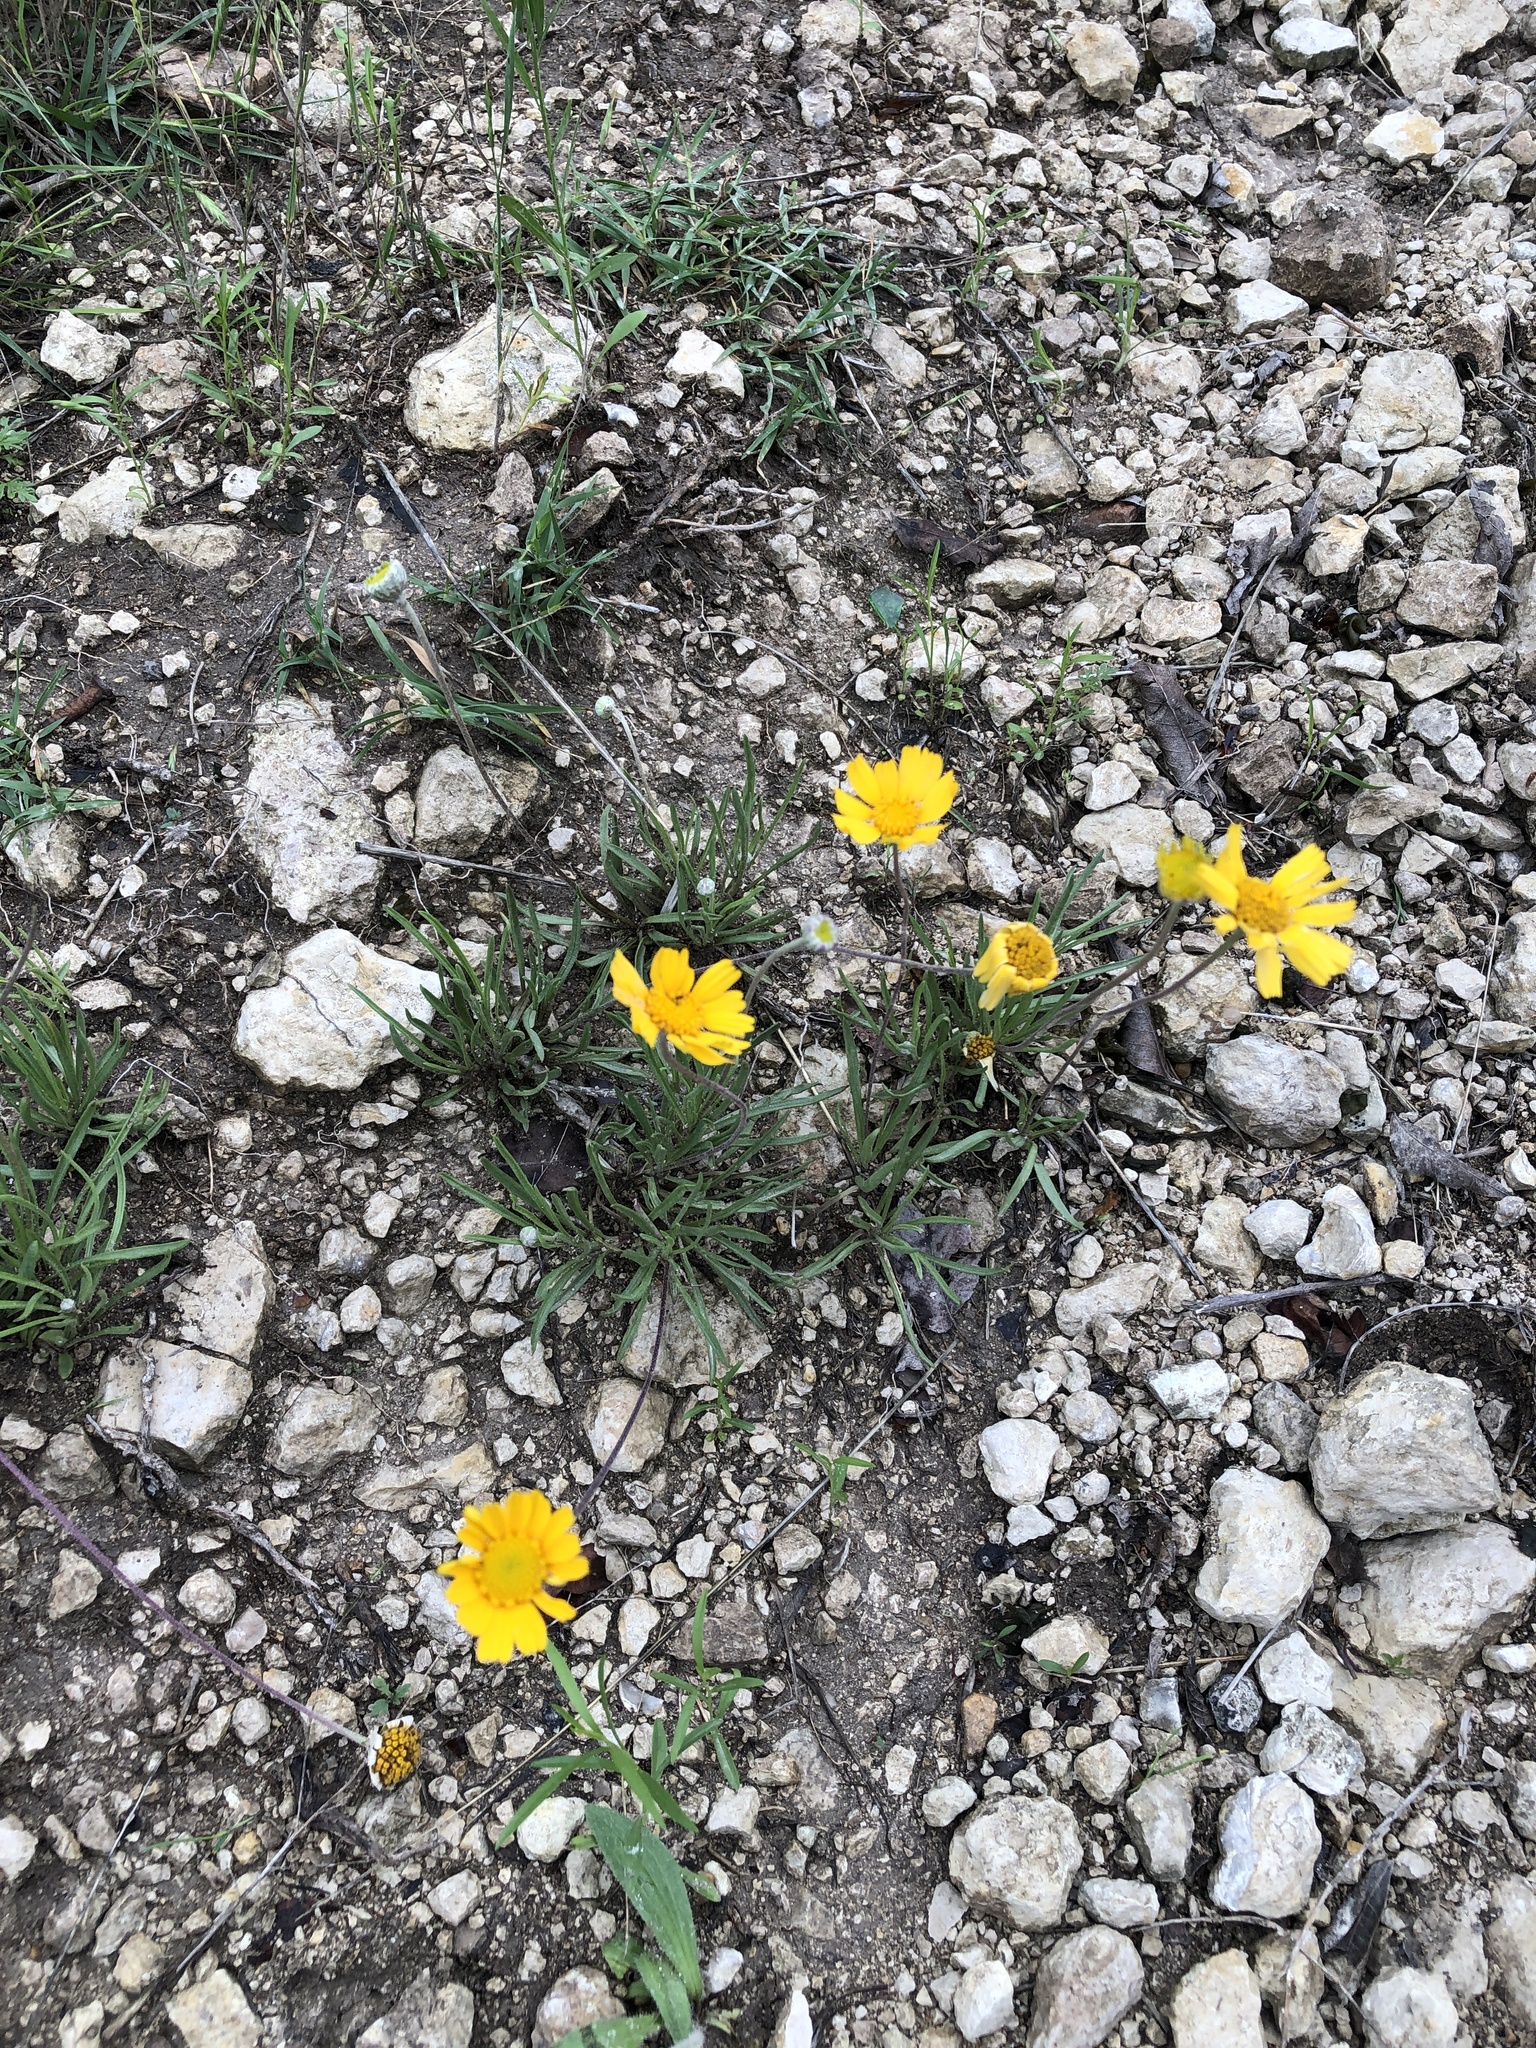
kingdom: Plantae
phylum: Tracheophyta
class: Magnoliopsida
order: Asterales
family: Asteraceae
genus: Tetraneuris
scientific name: Tetraneuris scaposa
